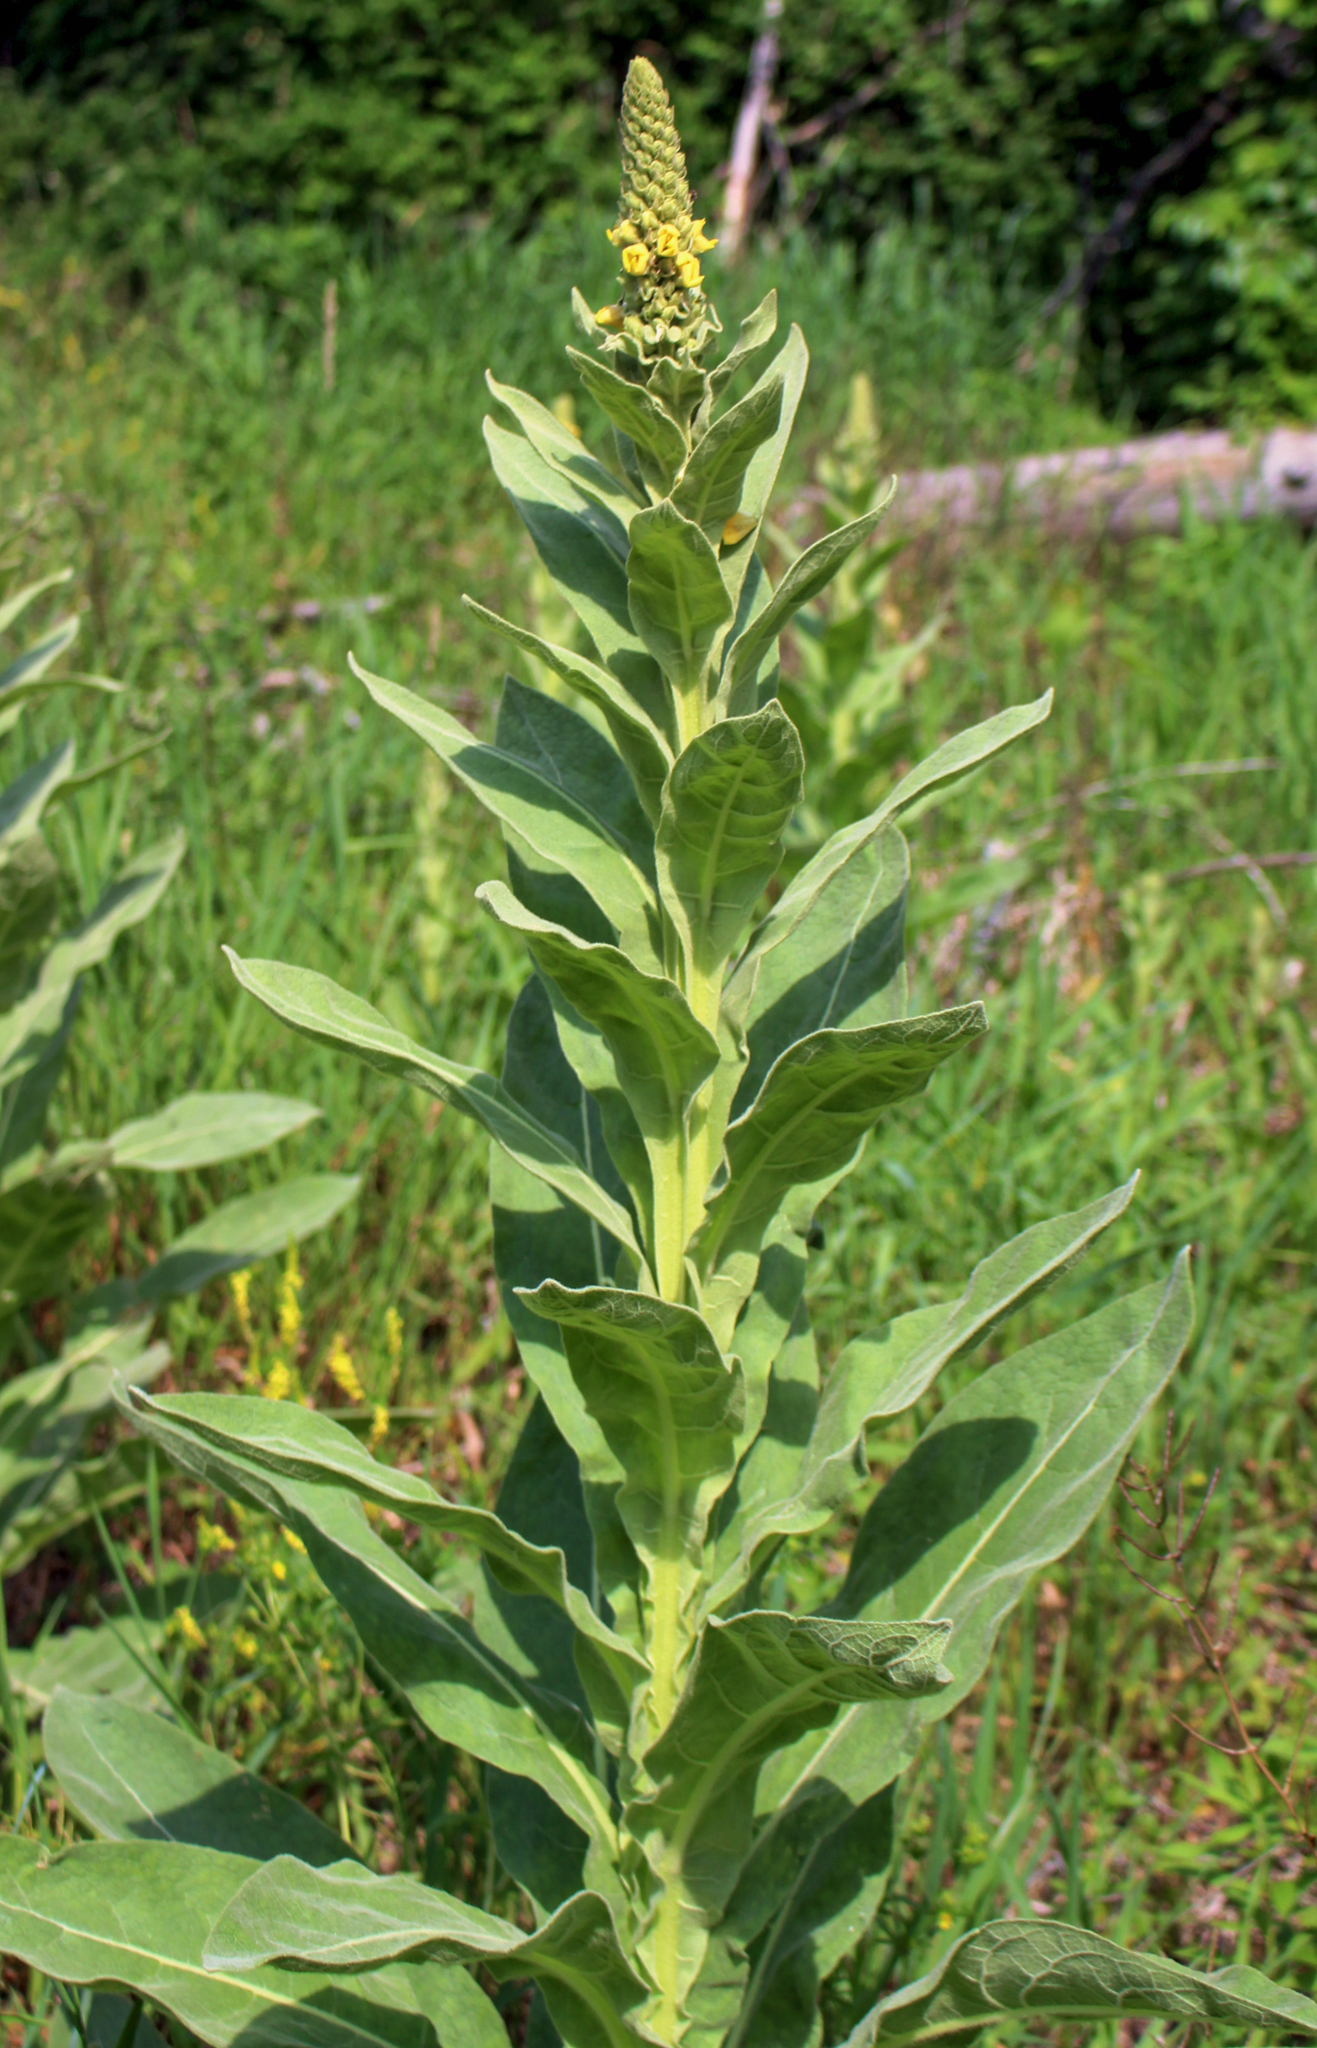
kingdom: Plantae
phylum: Tracheophyta
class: Magnoliopsida
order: Lamiales
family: Scrophulariaceae
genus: Verbascum
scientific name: Verbascum thapsus
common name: Common mullein
